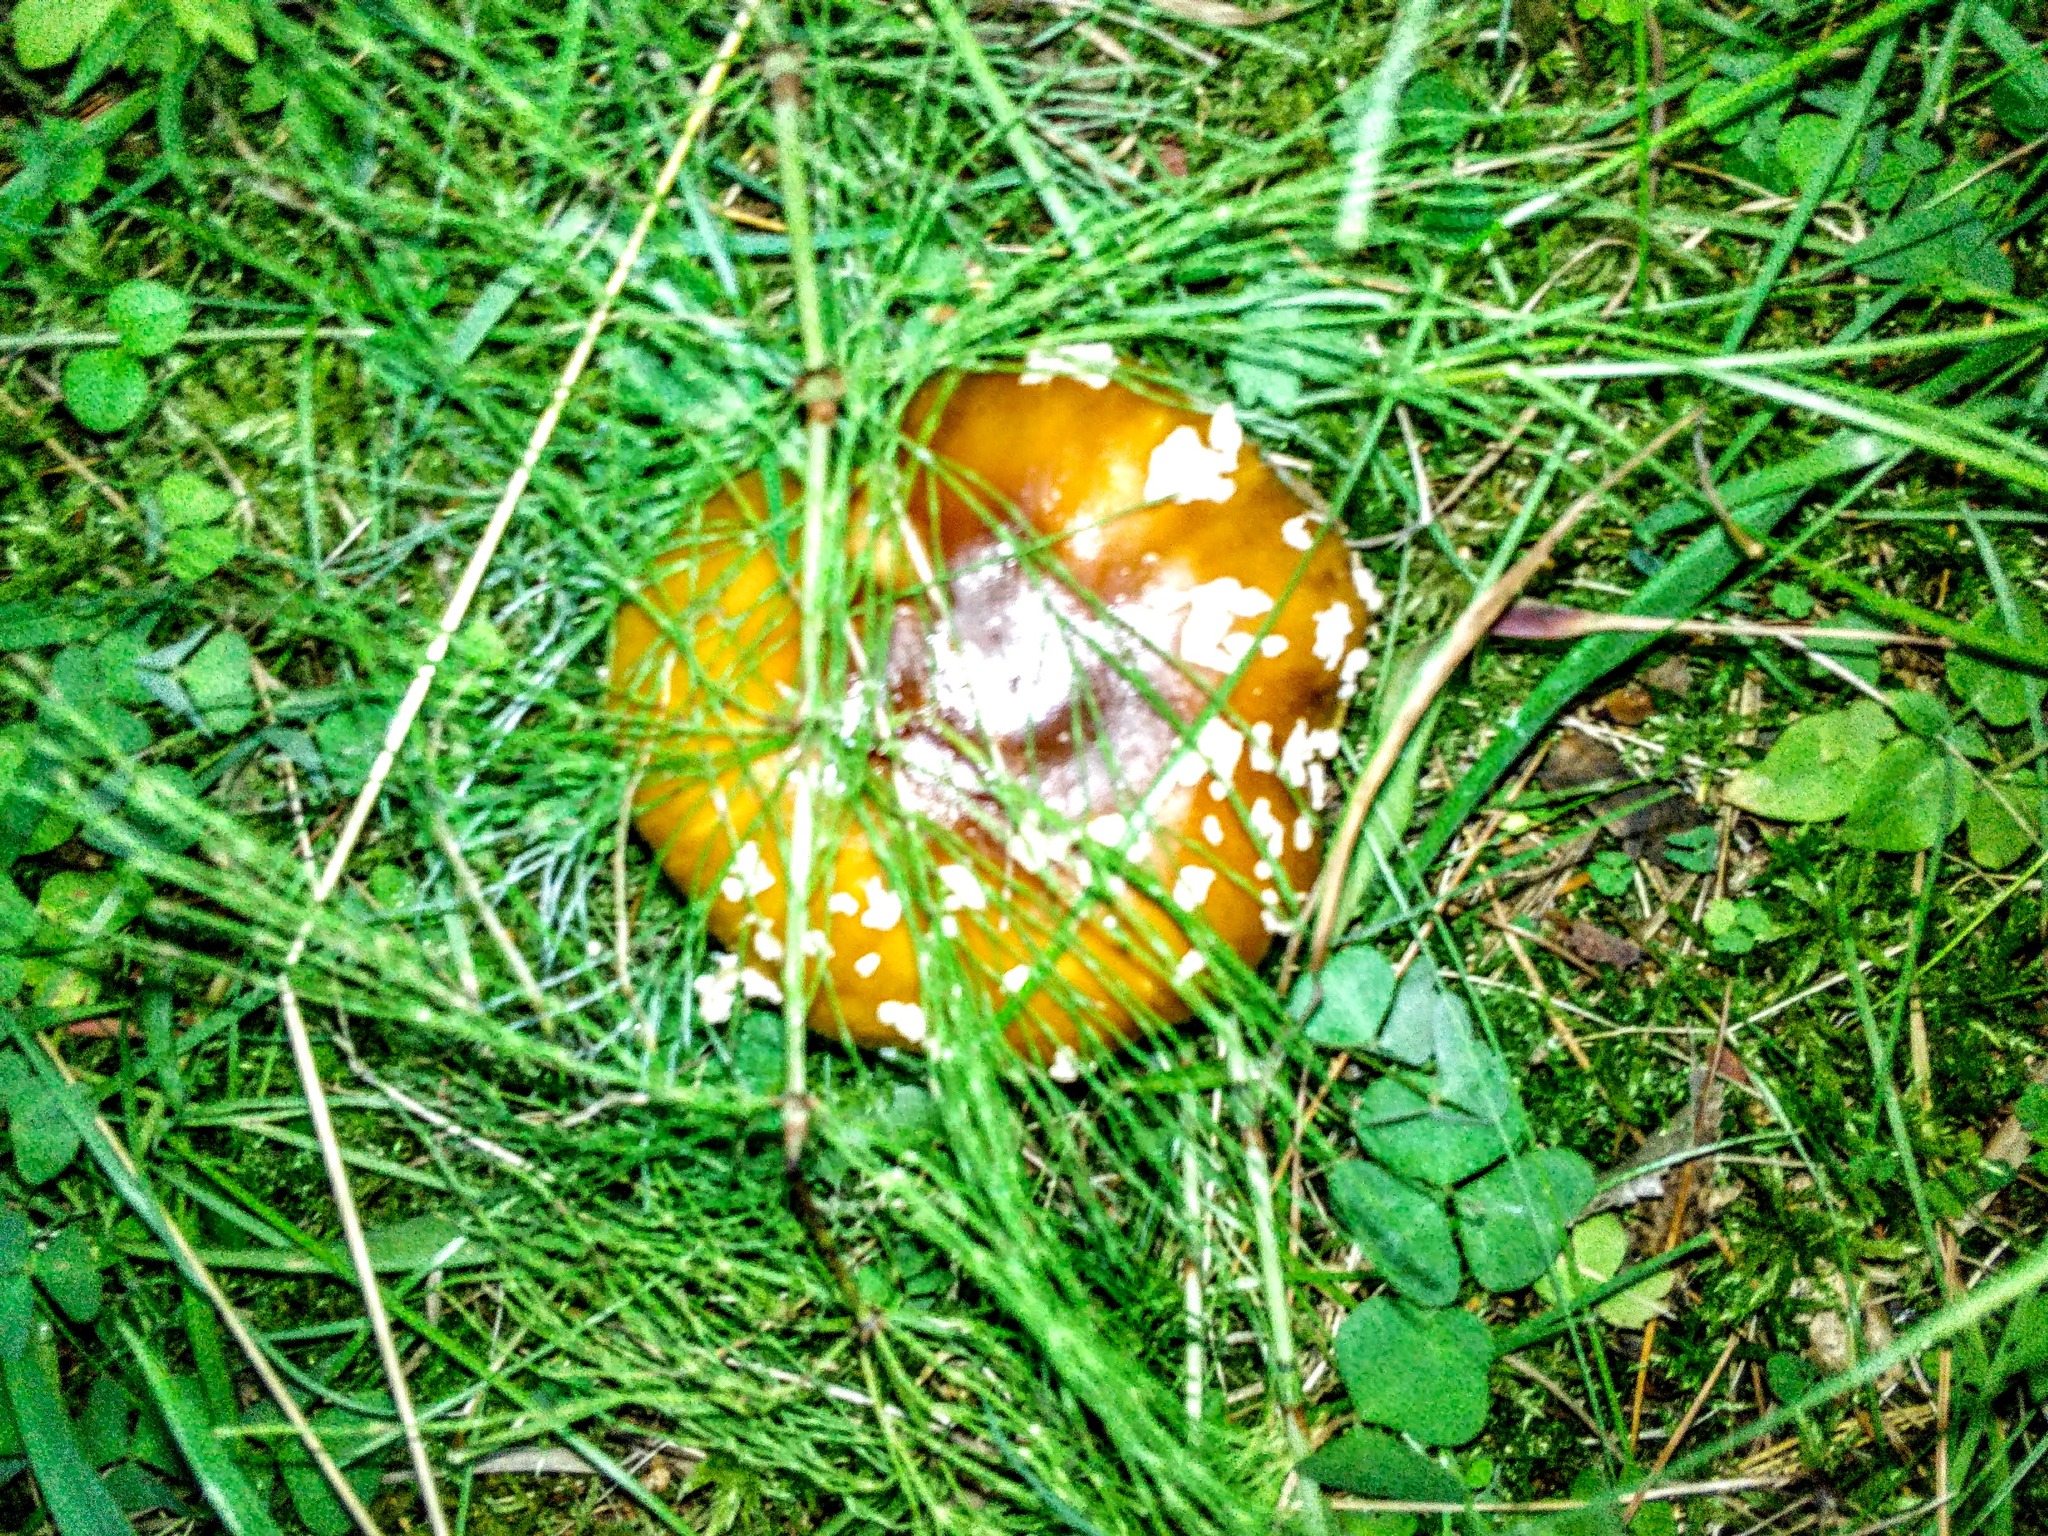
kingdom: Fungi
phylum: Basidiomycota
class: Agaricomycetes
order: Agaricales
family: Amanitaceae
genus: Amanita
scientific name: Amanita regalis
